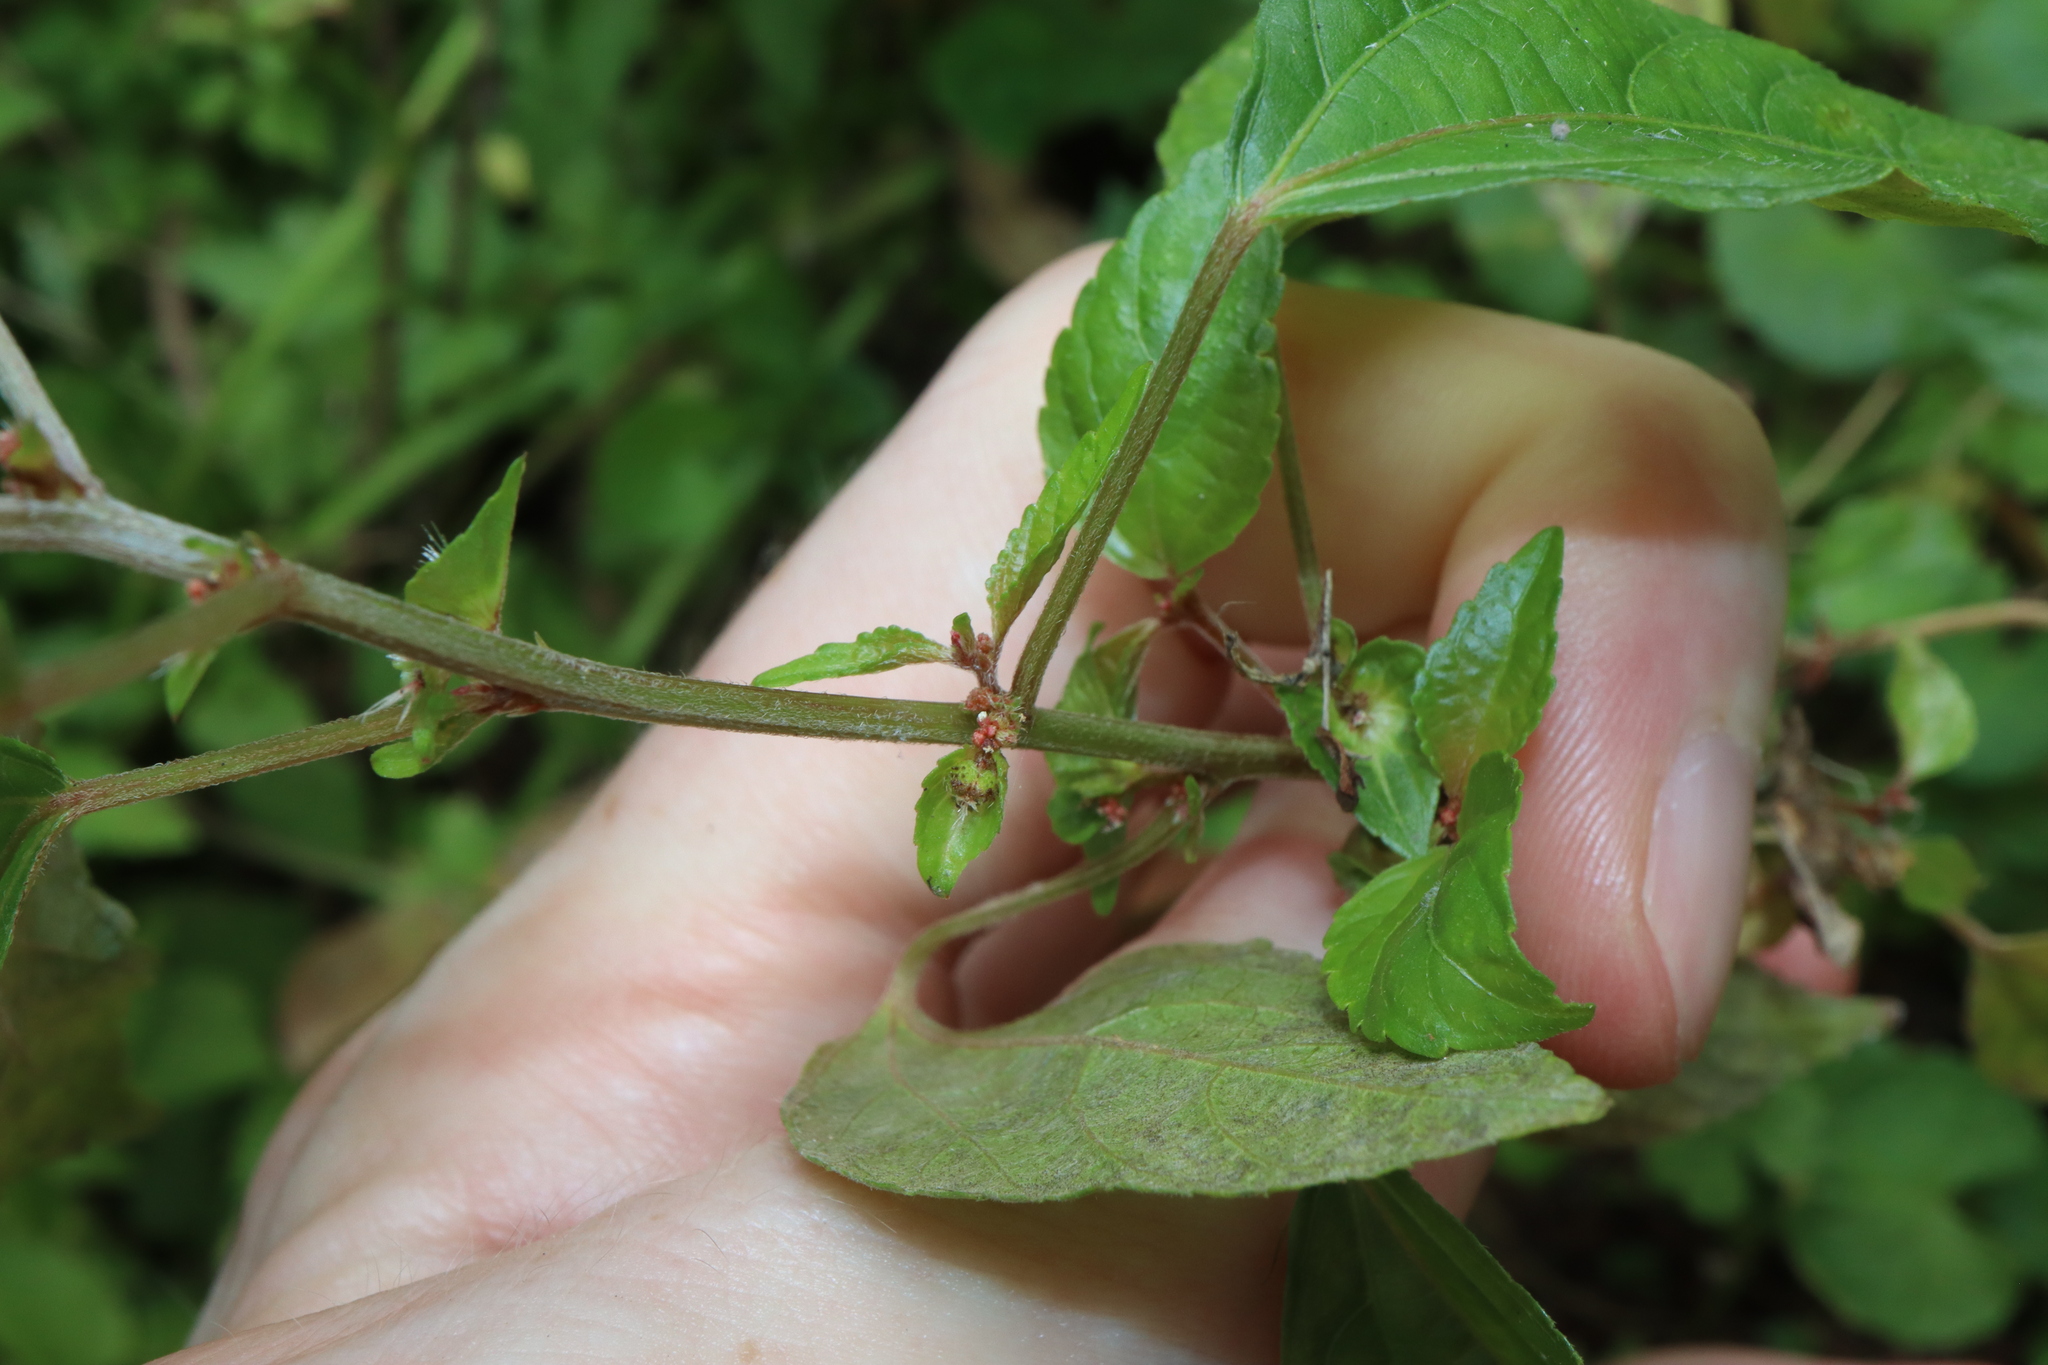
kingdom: Plantae
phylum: Tracheophyta
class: Magnoliopsida
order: Malpighiales
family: Euphorbiaceae
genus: Acalypha
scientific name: Acalypha australis
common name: Asian copperleaf
